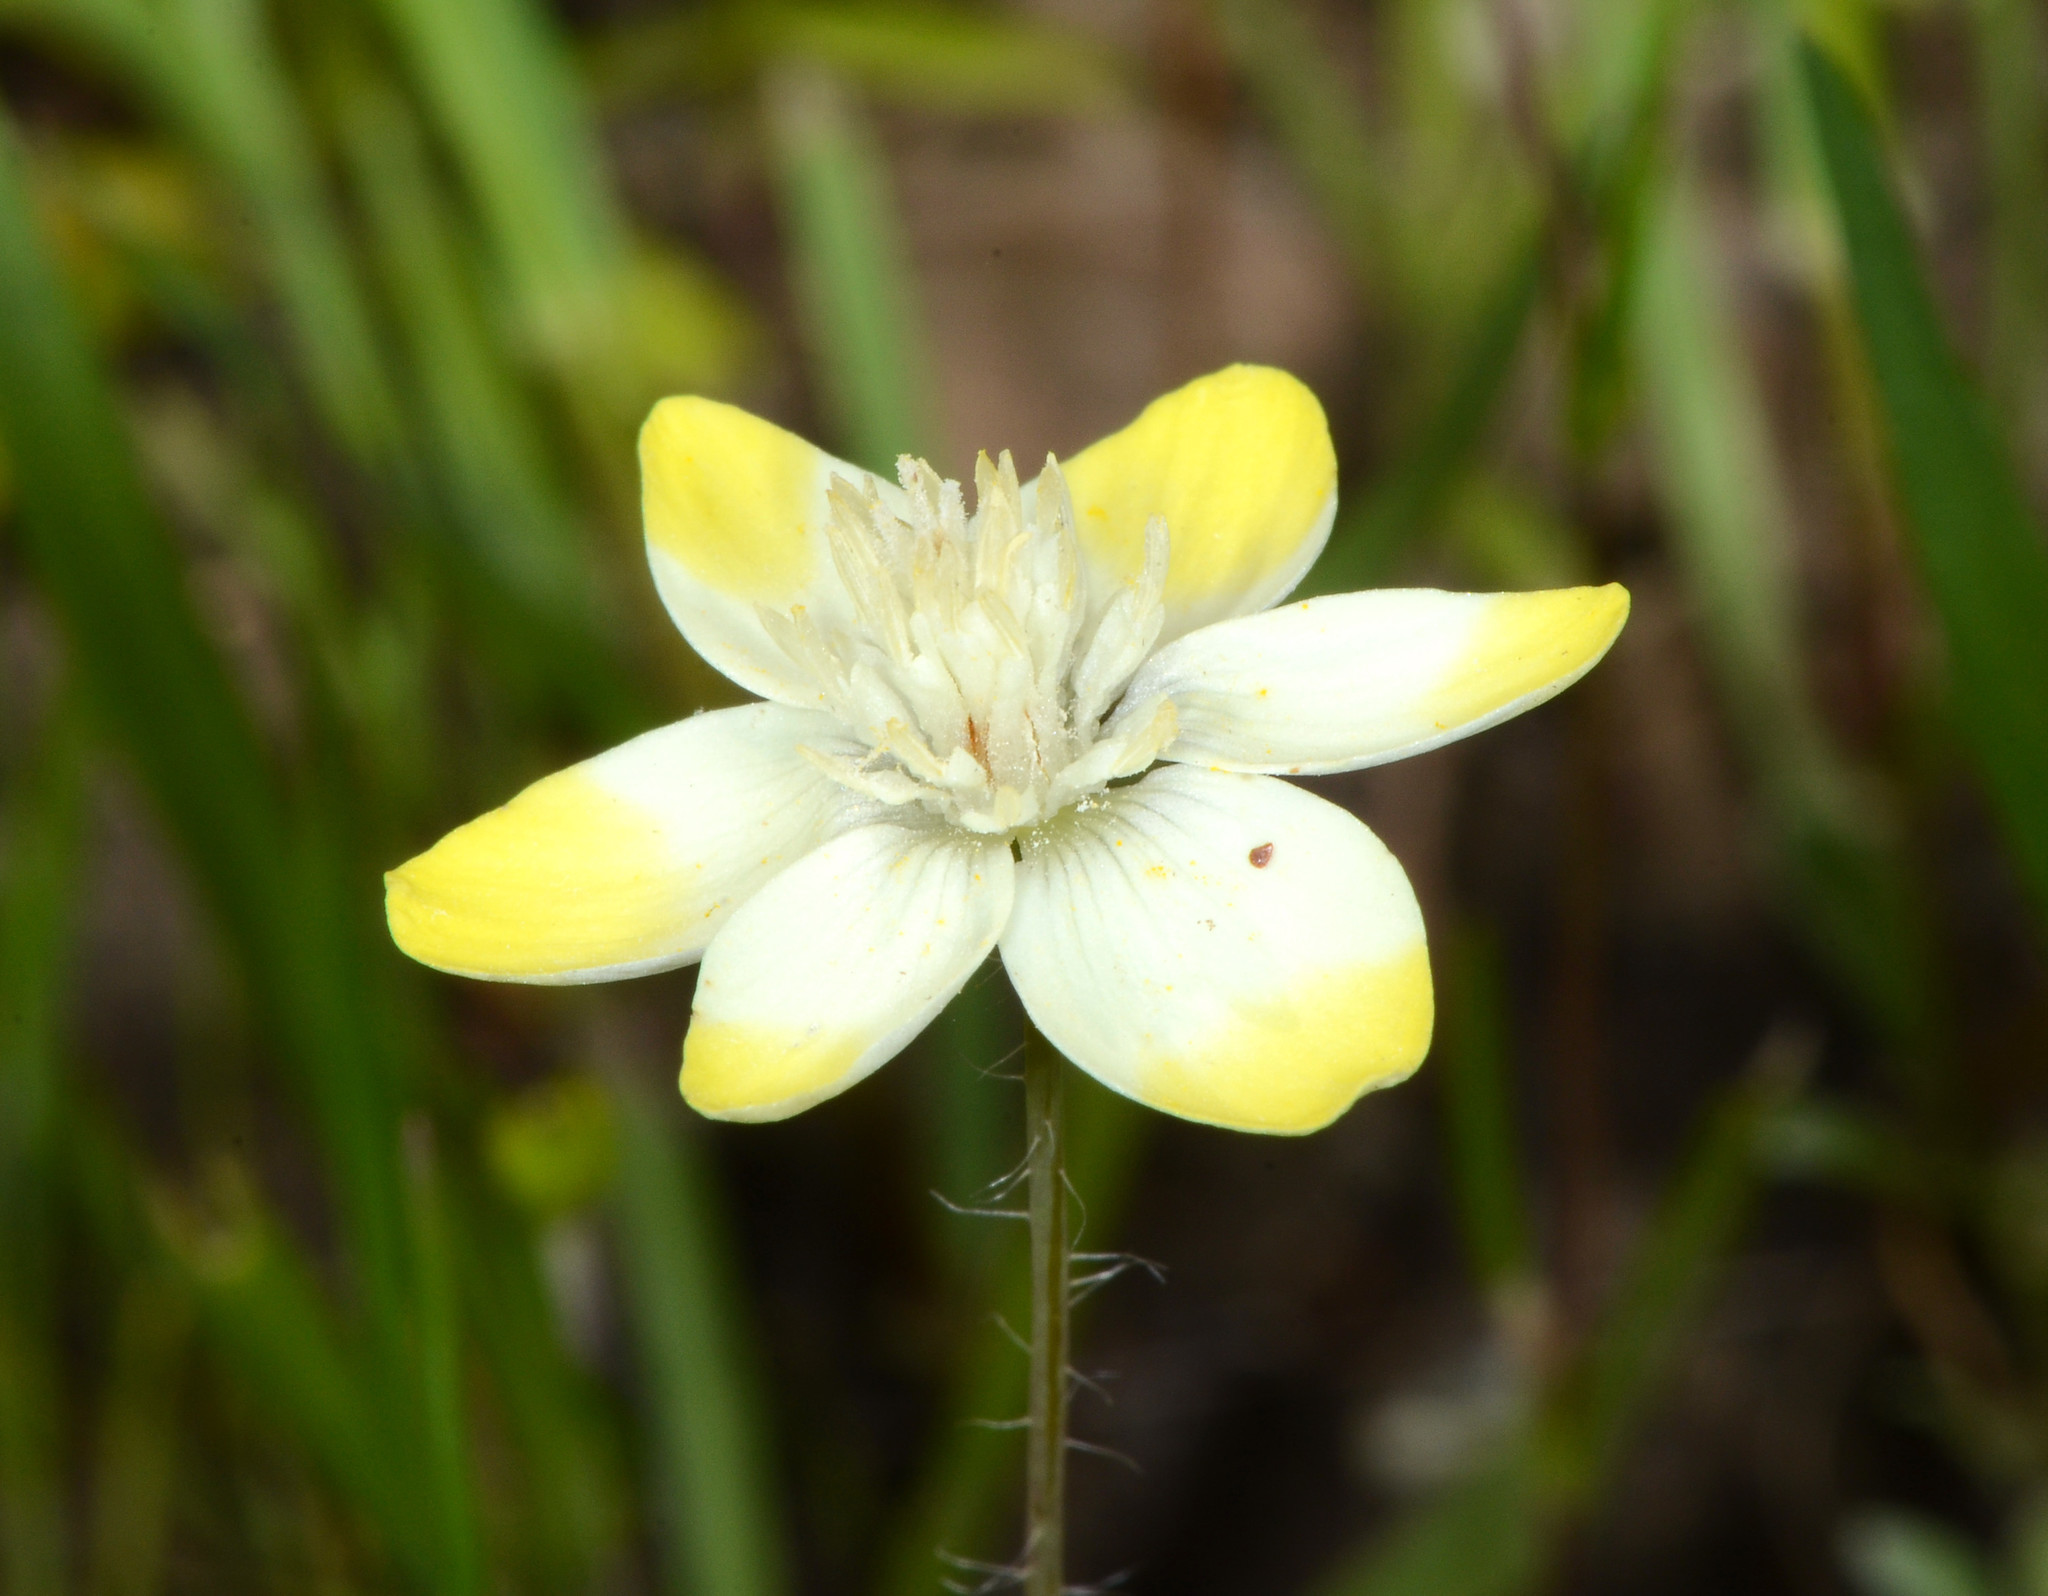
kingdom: Plantae
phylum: Tracheophyta
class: Magnoliopsida
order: Ranunculales
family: Papaveraceae
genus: Platystemon
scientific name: Platystemon californicus
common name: Cream-cups
